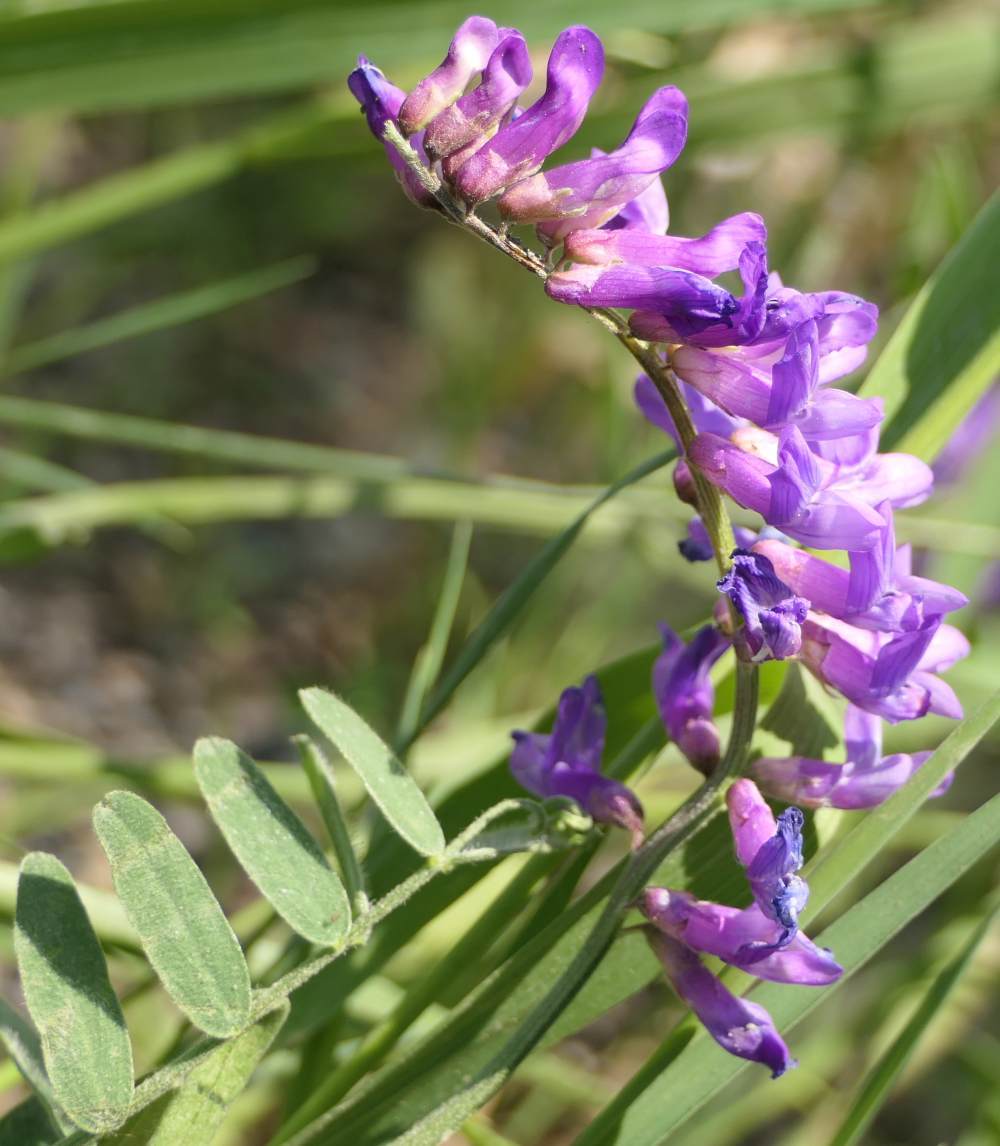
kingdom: Plantae
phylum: Tracheophyta
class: Magnoliopsida
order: Fabales
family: Fabaceae
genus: Vicia
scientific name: Vicia cracca
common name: Bird vetch
